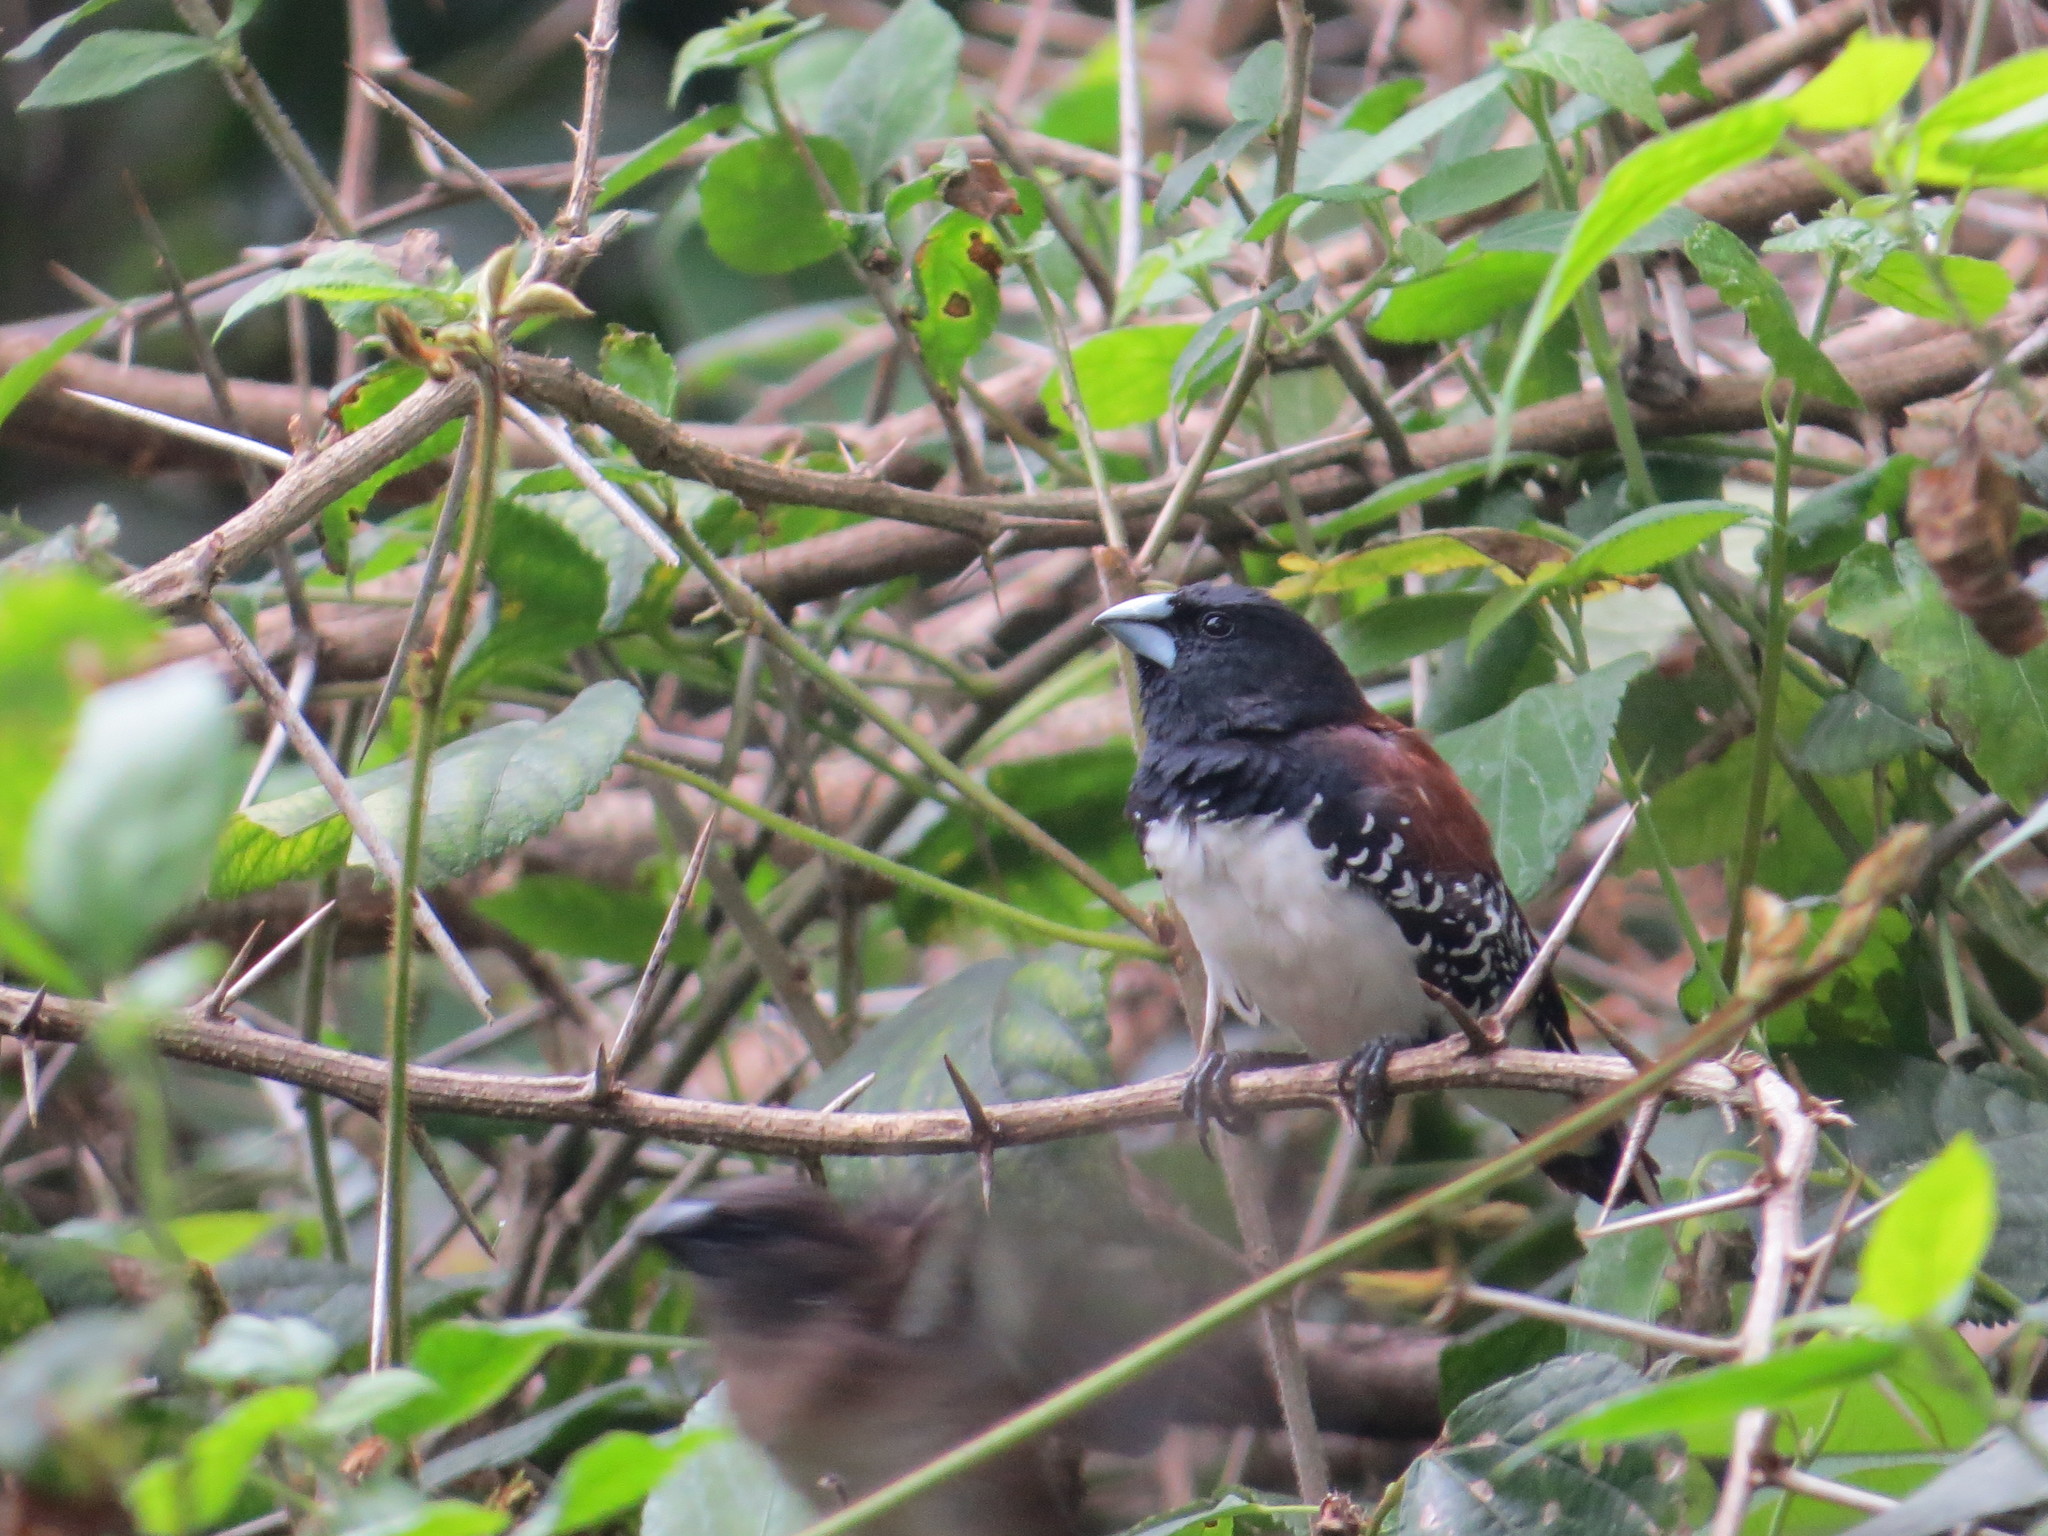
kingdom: Animalia
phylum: Chordata
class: Aves
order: Passeriformes
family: Estrildidae
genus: Lonchura
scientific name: Lonchura nigriceps
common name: Red-backed mannikin
